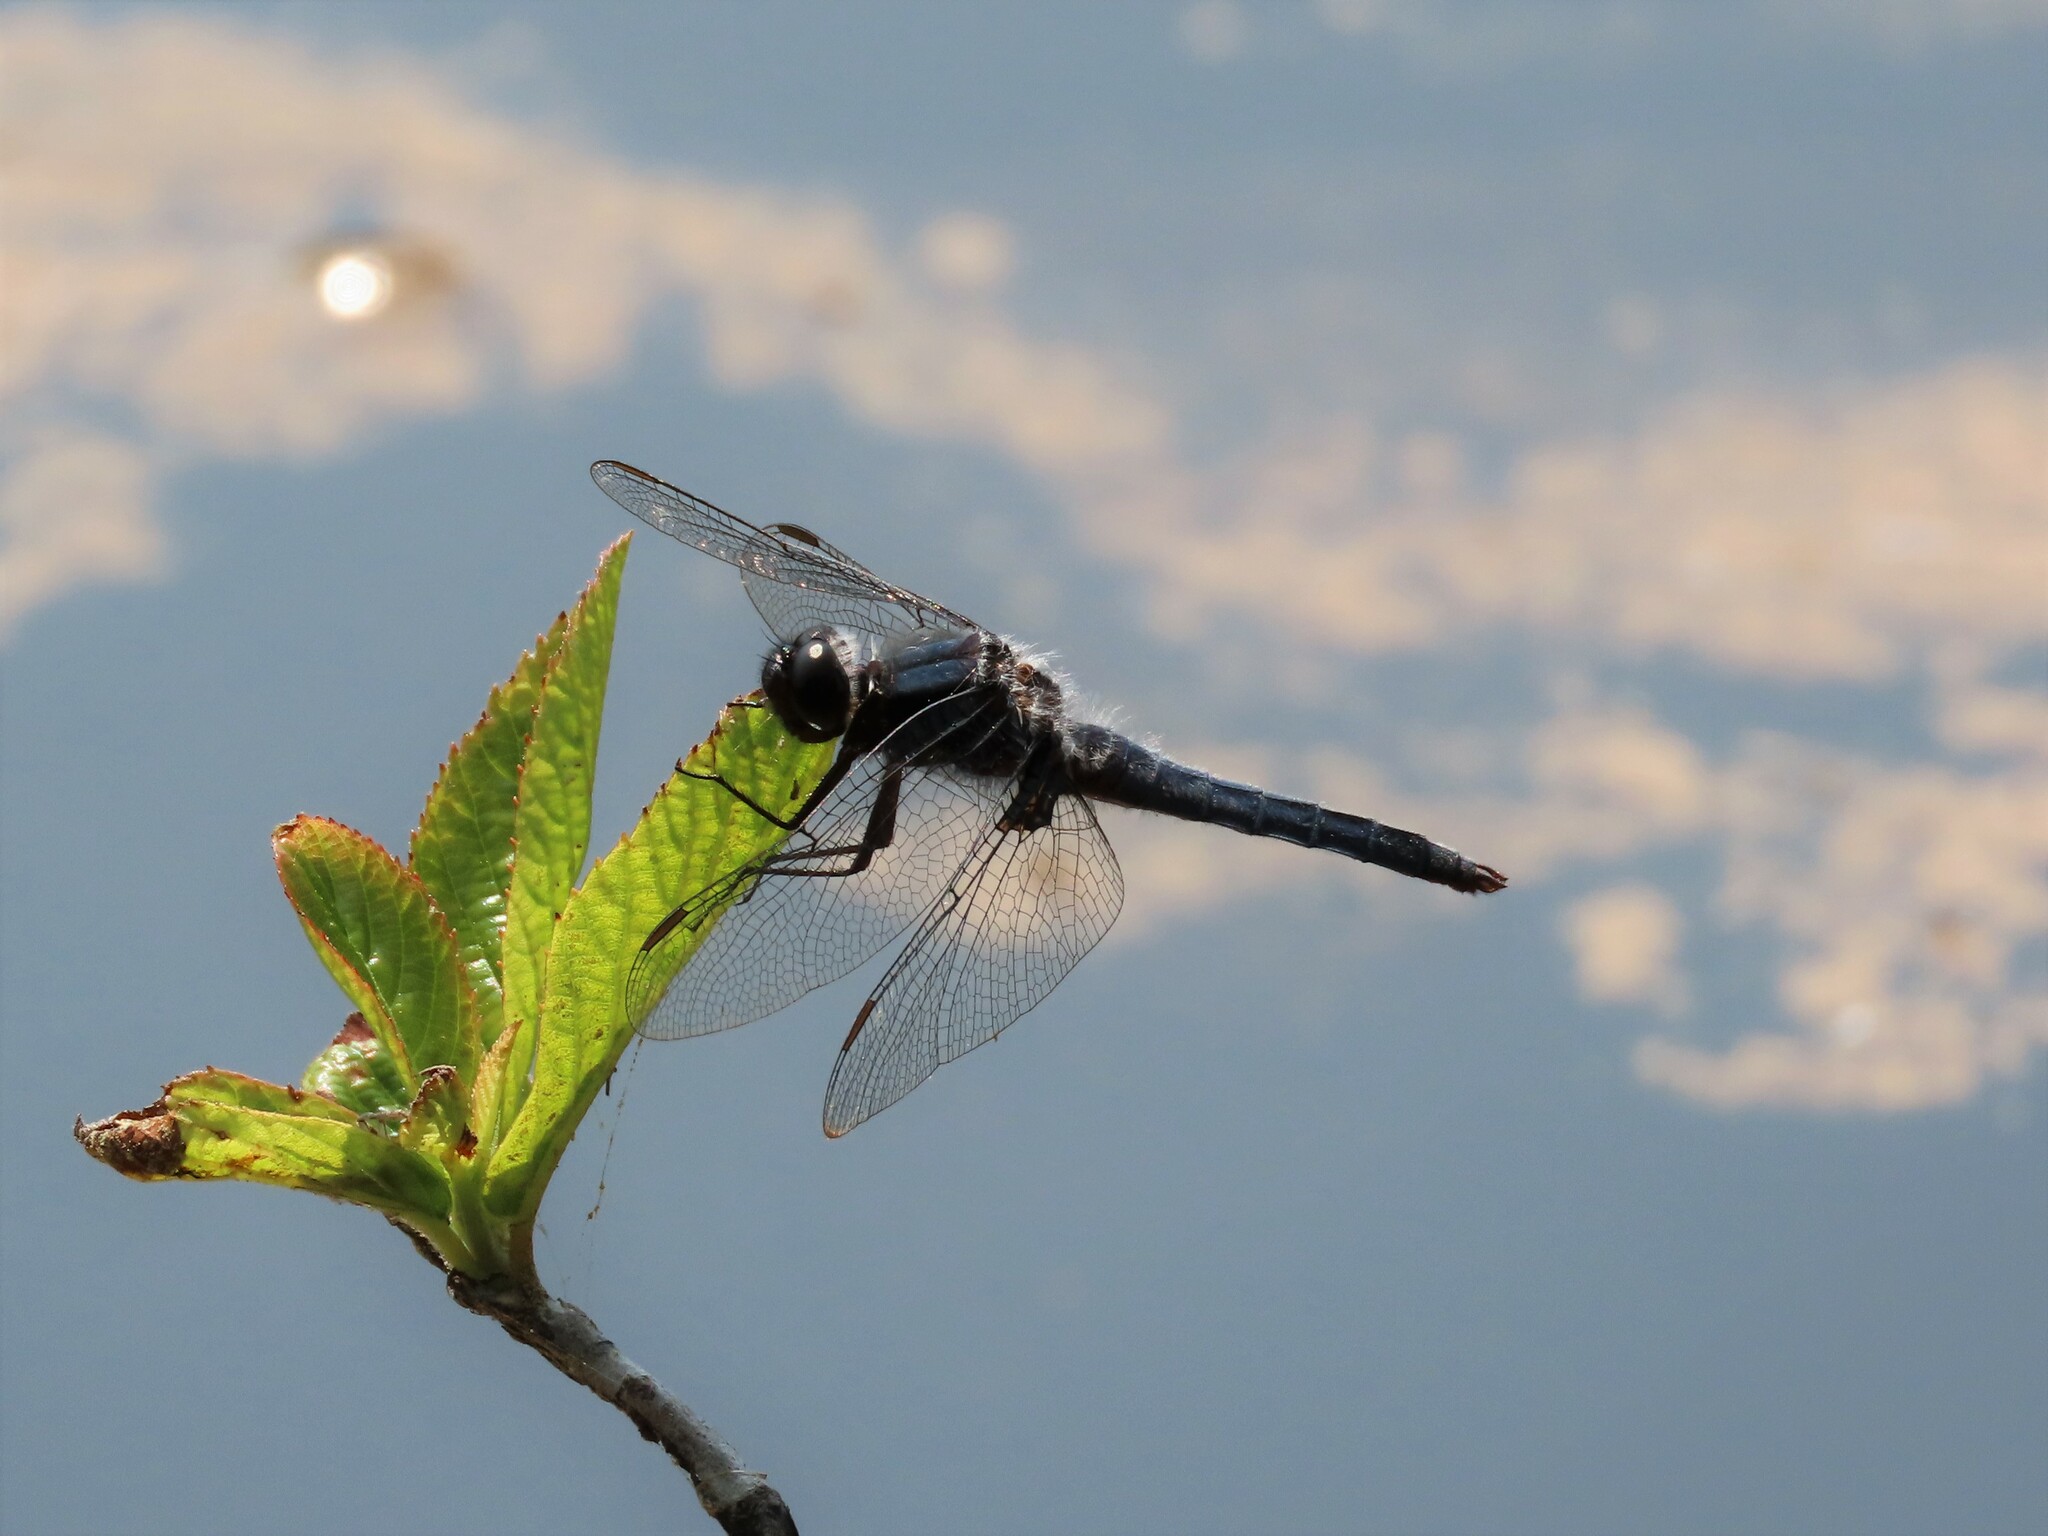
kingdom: Animalia
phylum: Arthropoda
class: Insecta
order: Odonata
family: Libellulidae
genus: Ladona
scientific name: Ladona deplanata
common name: Blue corporal
